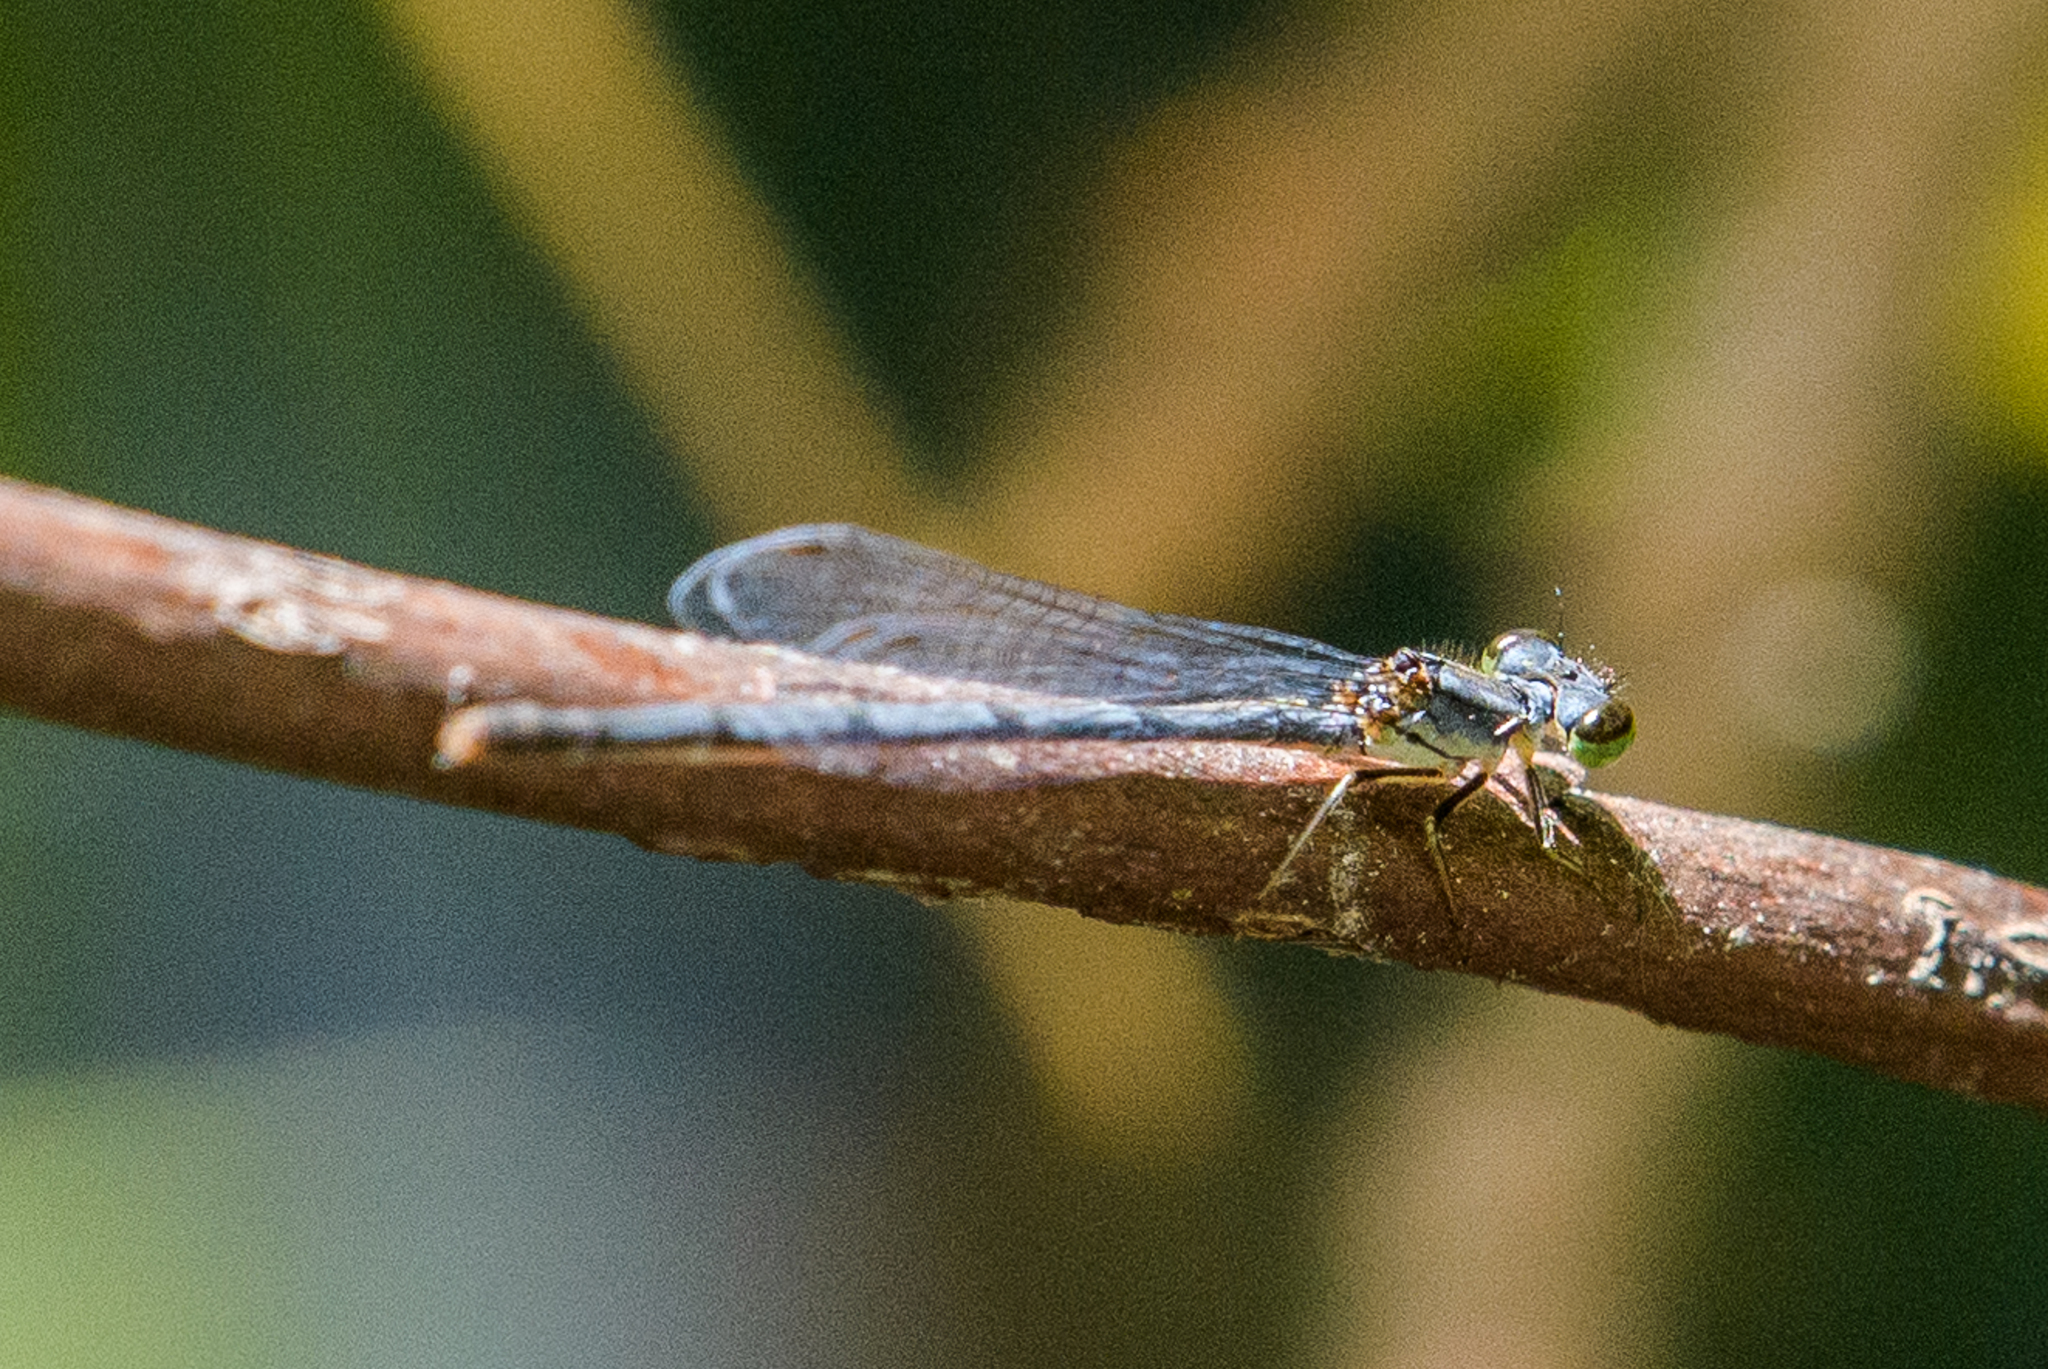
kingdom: Animalia
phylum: Arthropoda
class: Insecta
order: Odonata
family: Coenagrionidae
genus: Ischnura
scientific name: Ischnura posita
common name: Fragile forktail
